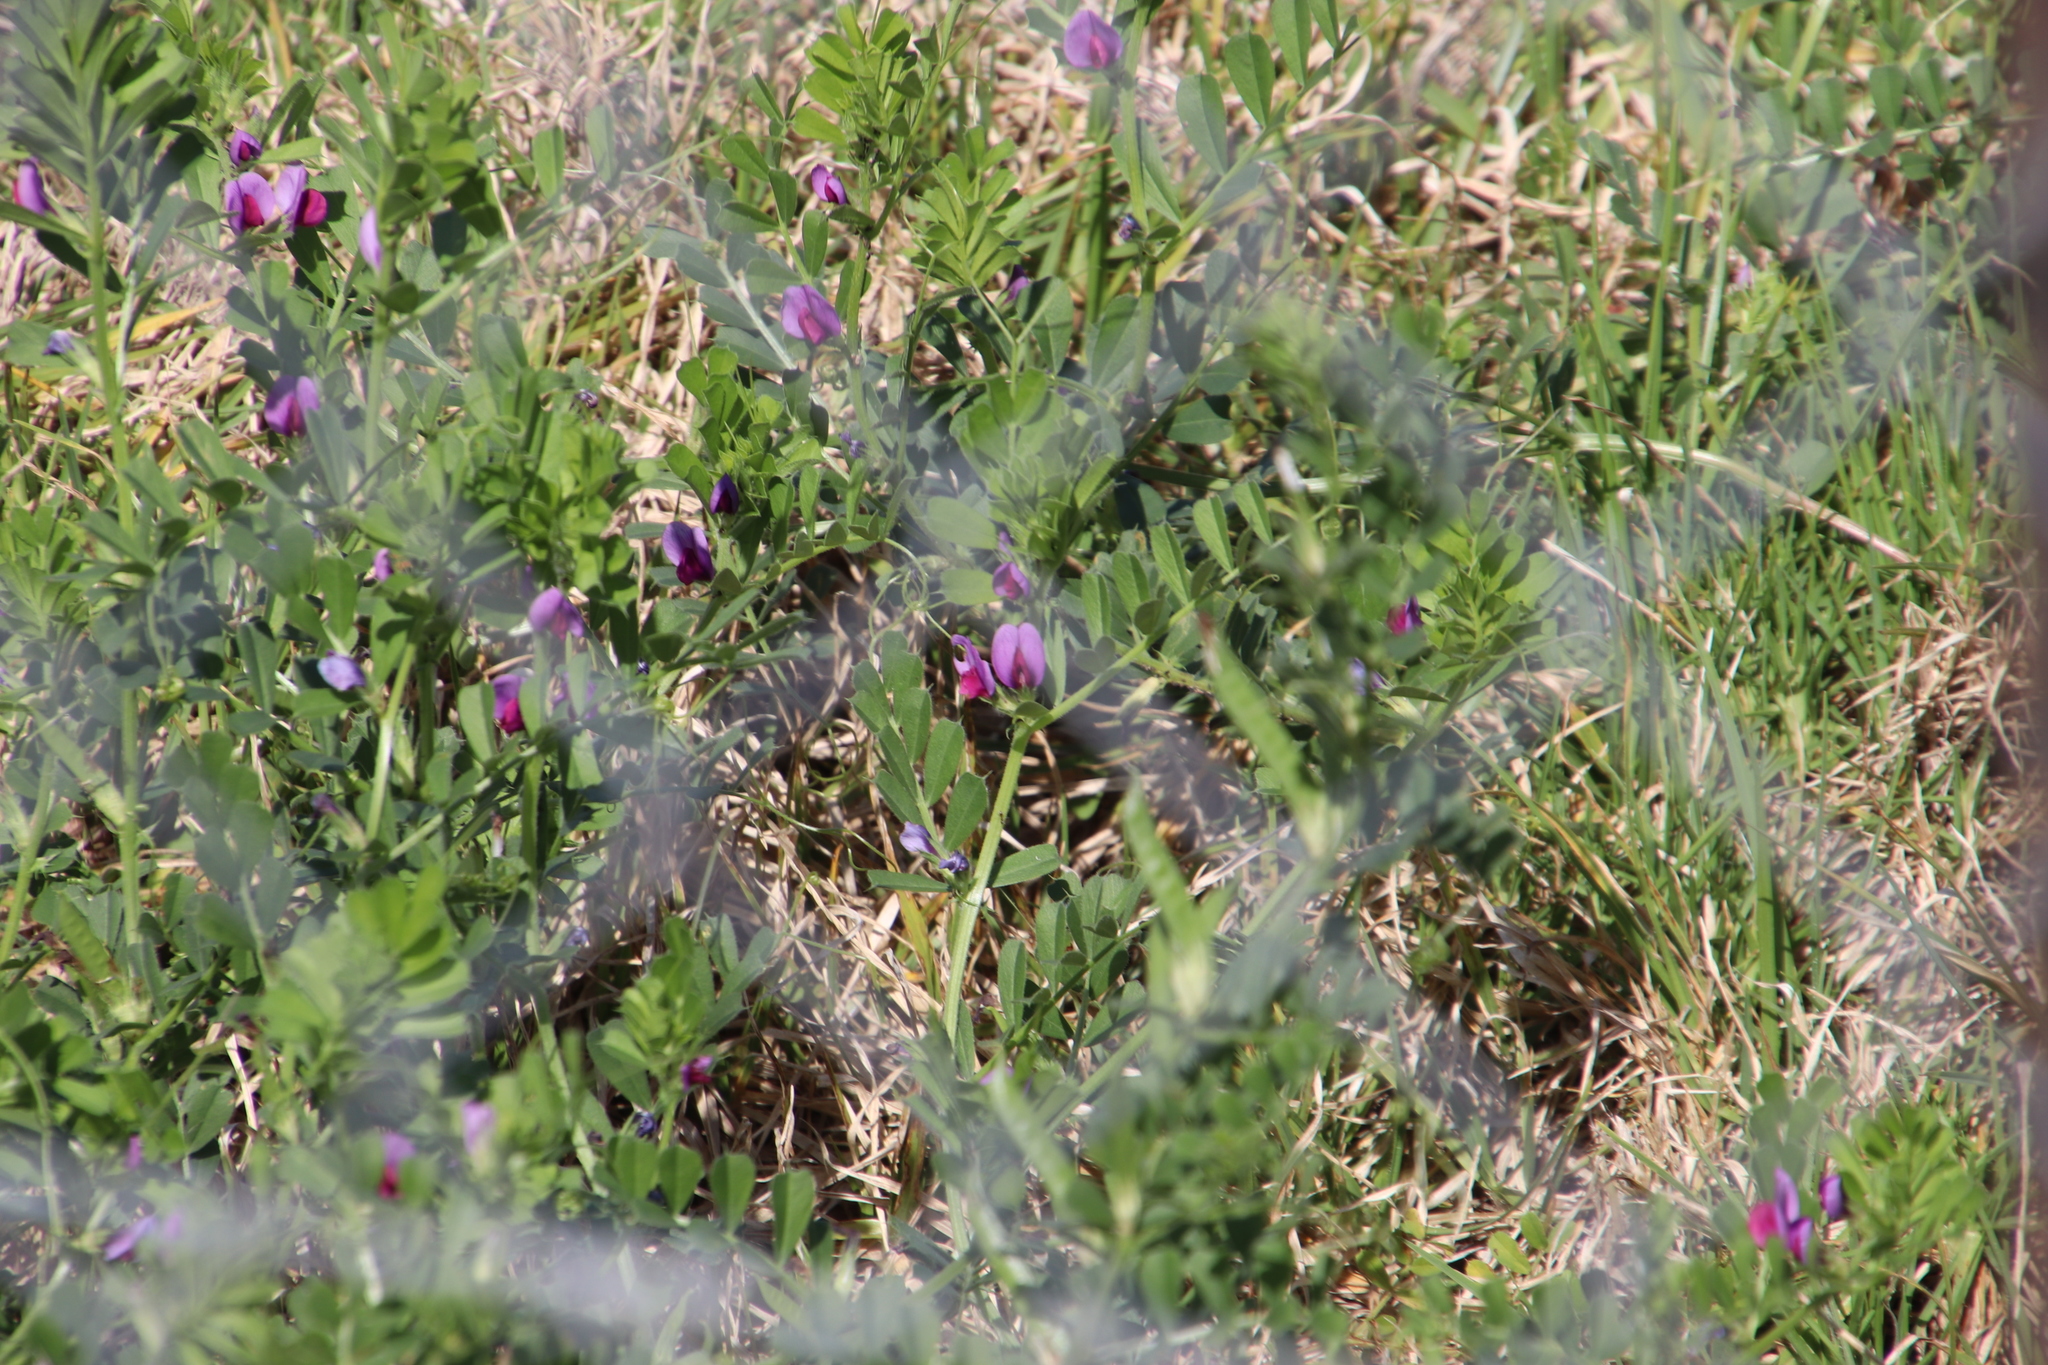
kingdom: Plantae
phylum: Tracheophyta
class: Magnoliopsida
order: Fabales
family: Fabaceae
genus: Vicia
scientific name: Vicia sativa
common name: Garden vetch
